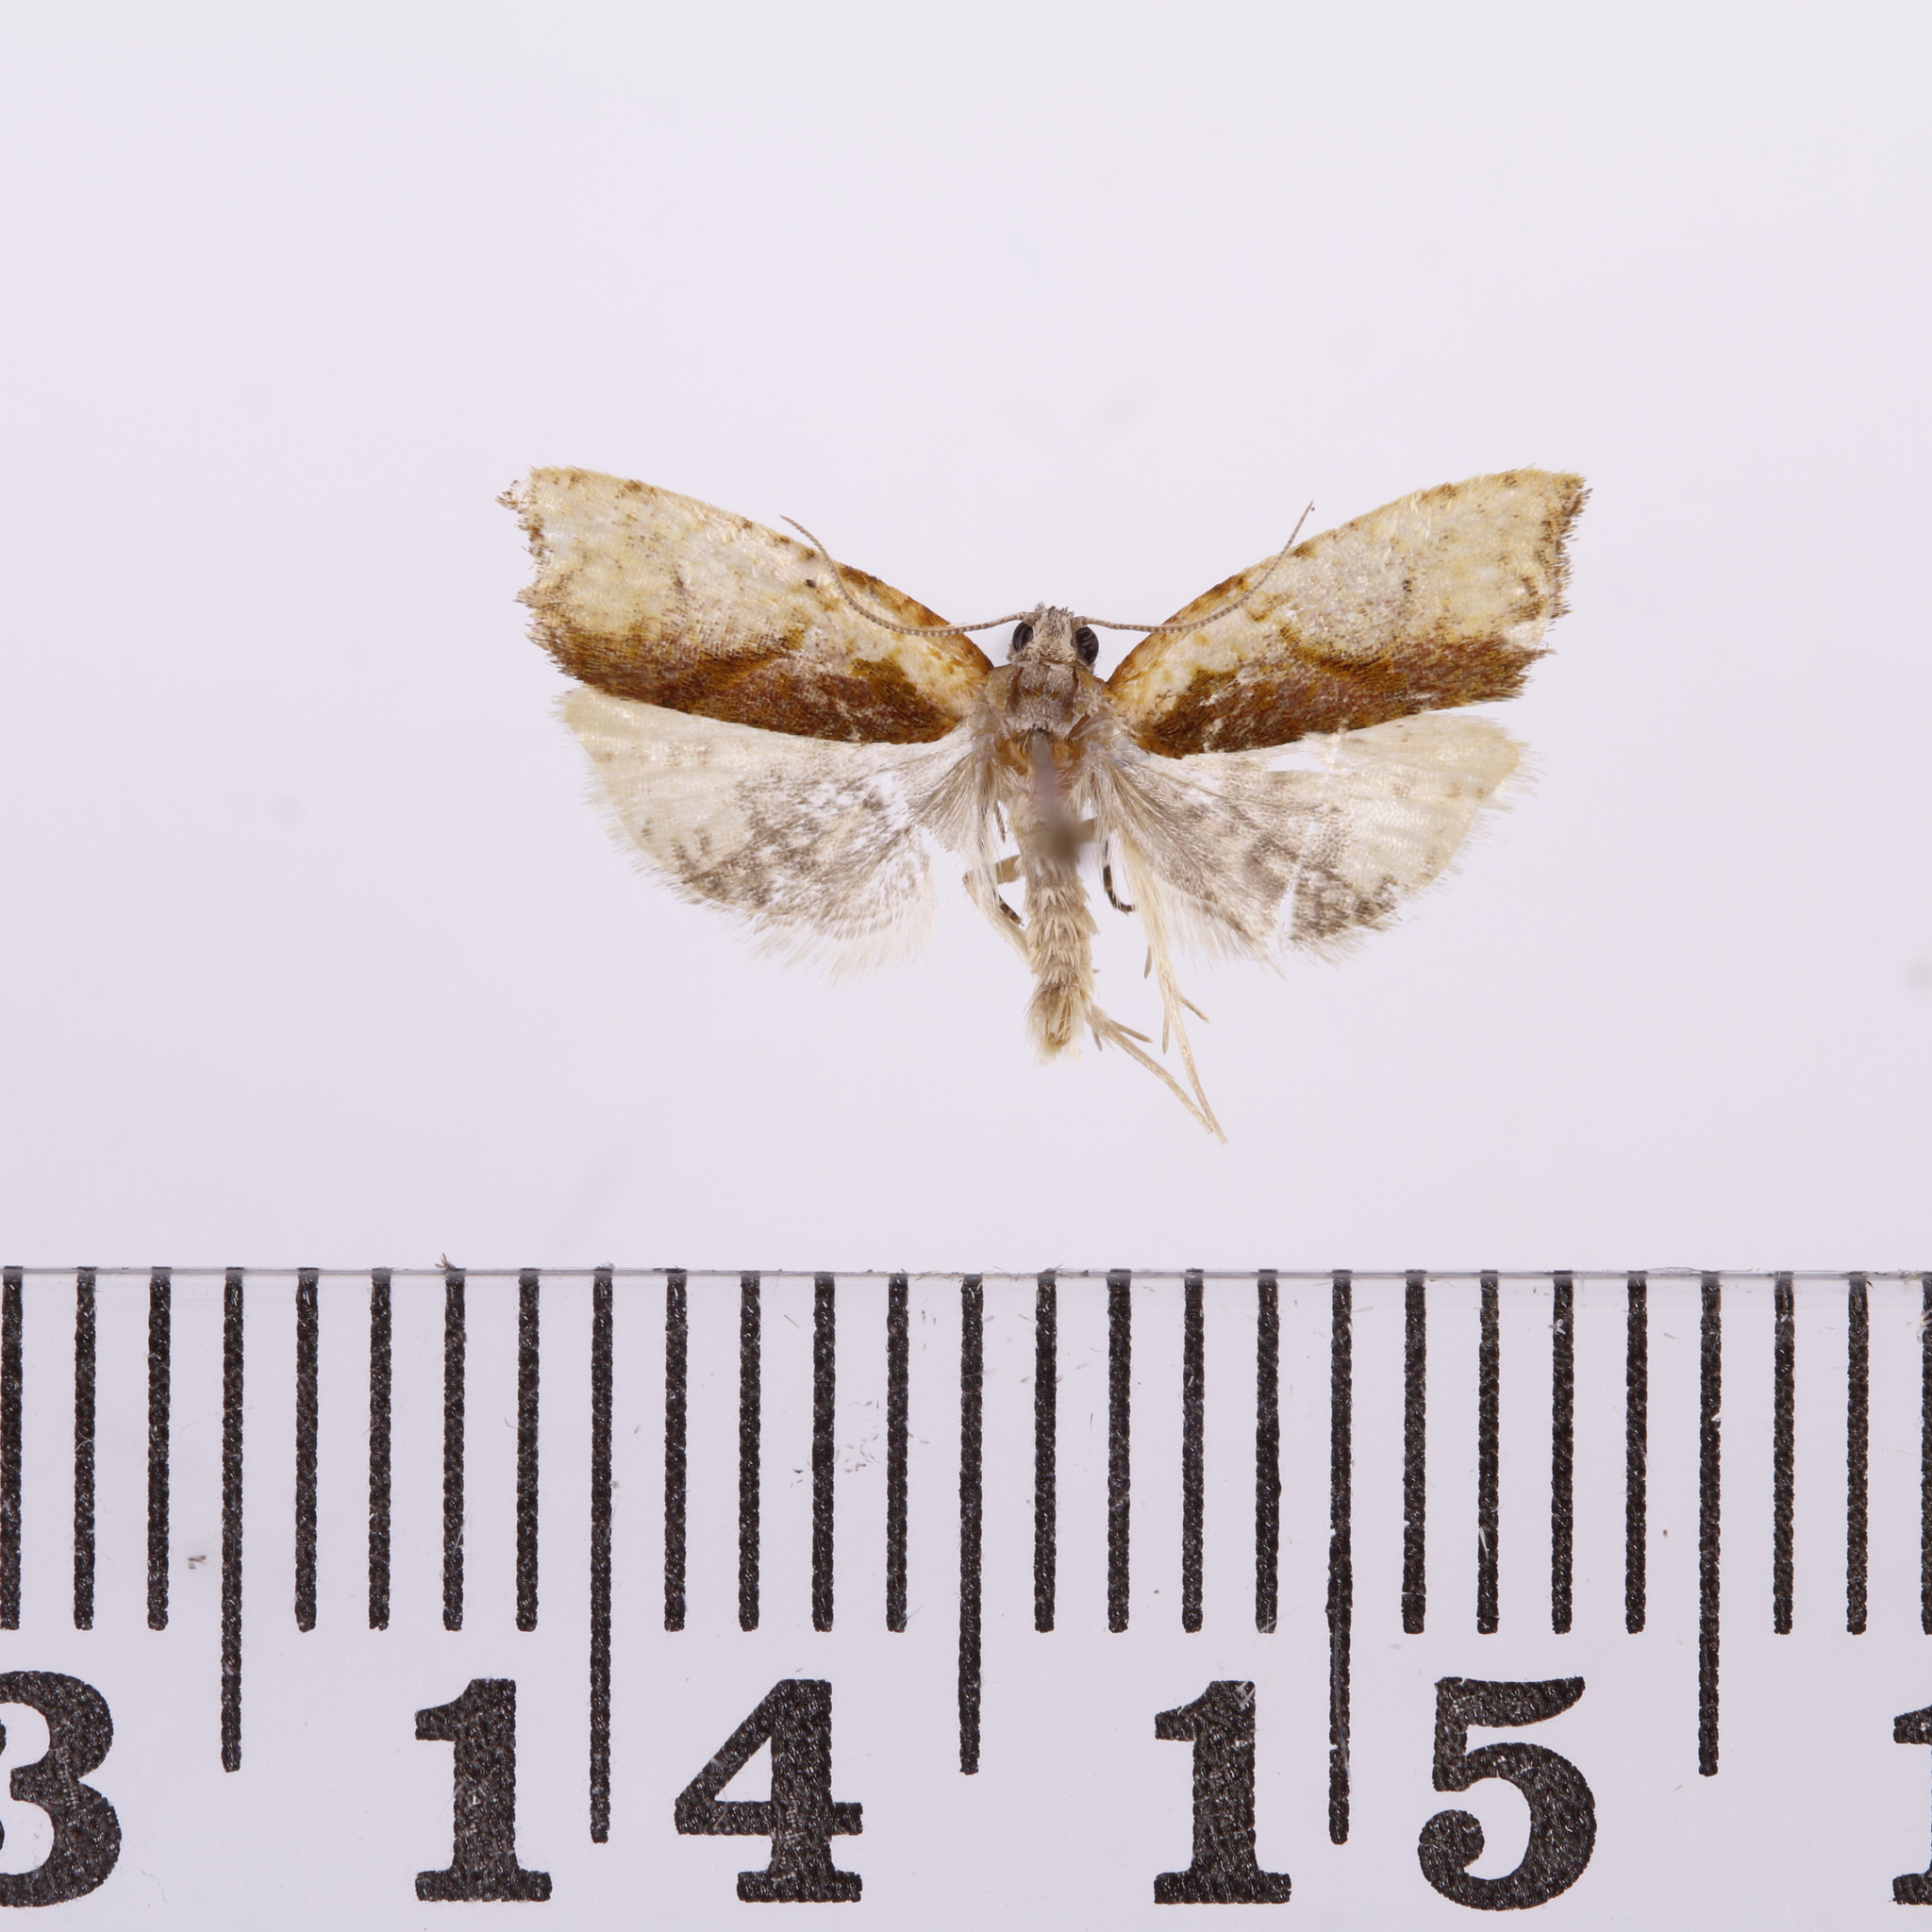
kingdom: Animalia
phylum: Arthropoda
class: Insecta
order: Lepidoptera
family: Tortricidae
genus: Pyrgotis
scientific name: Pyrgotis plagiatana
